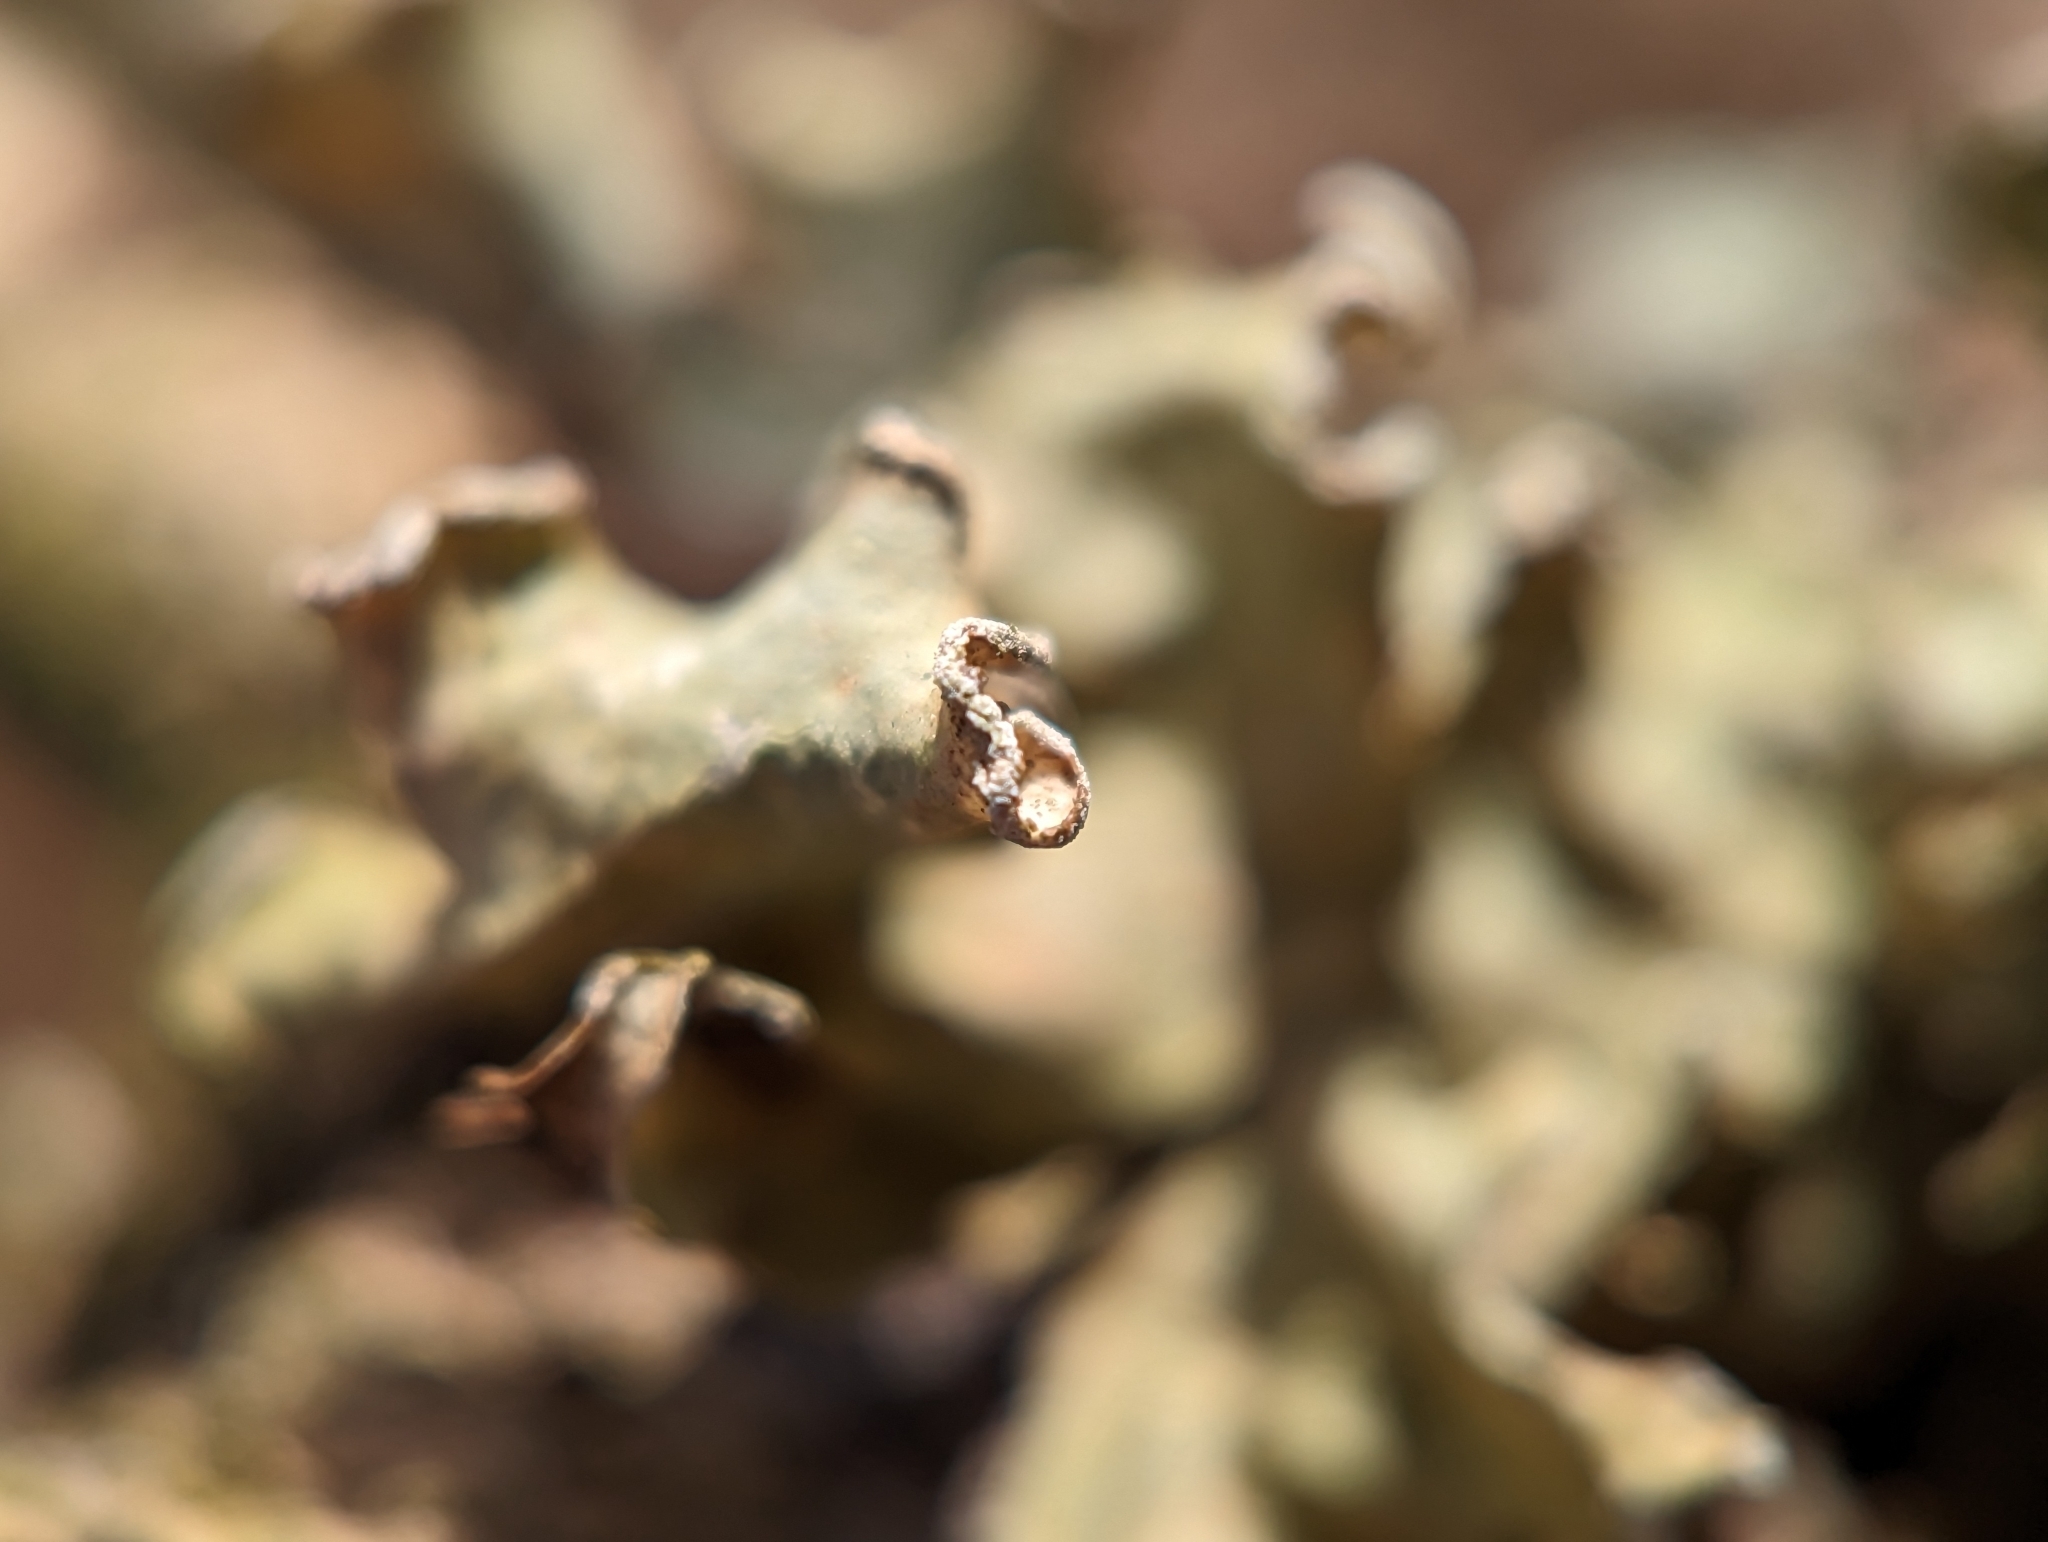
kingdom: Fungi
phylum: Ascomycota
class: Lecanoromycetes
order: Lecanorales
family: Parmeliaceae
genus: Parmotrema
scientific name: Parmotrema austrosinense
